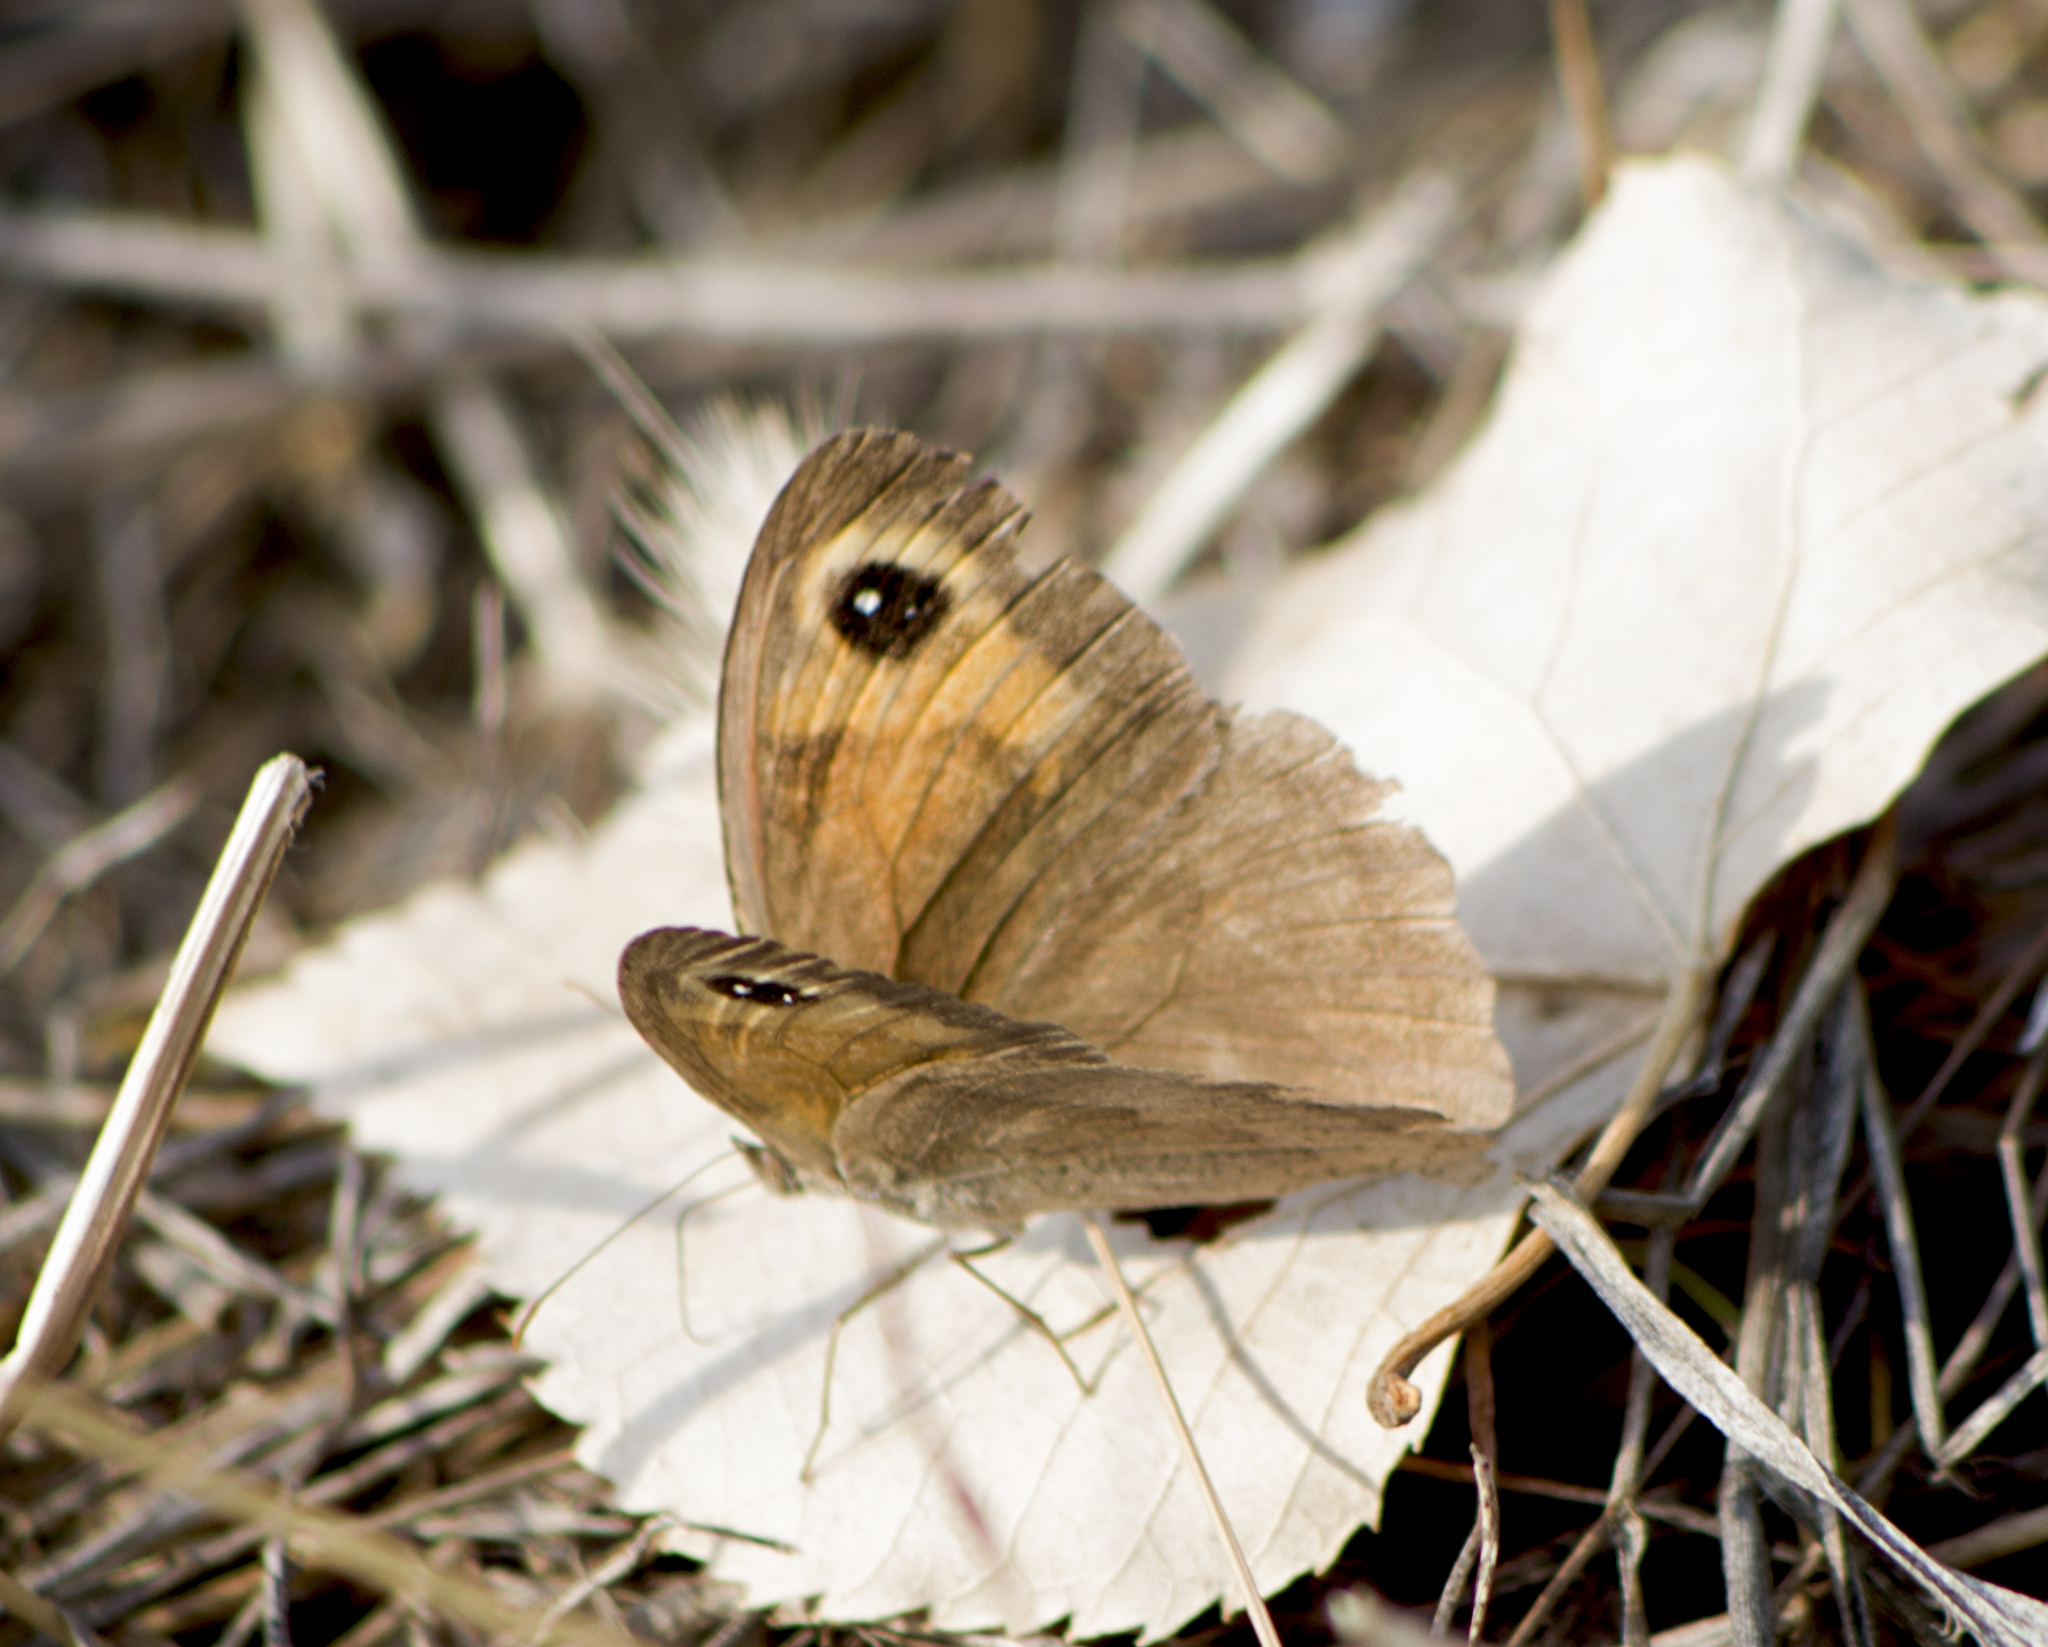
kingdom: Animalia
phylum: Arthropoda
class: Insecta
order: Lepidoptera
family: Nymphalidae
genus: Maniola
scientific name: Maniola jurtina
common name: Meadow brown
